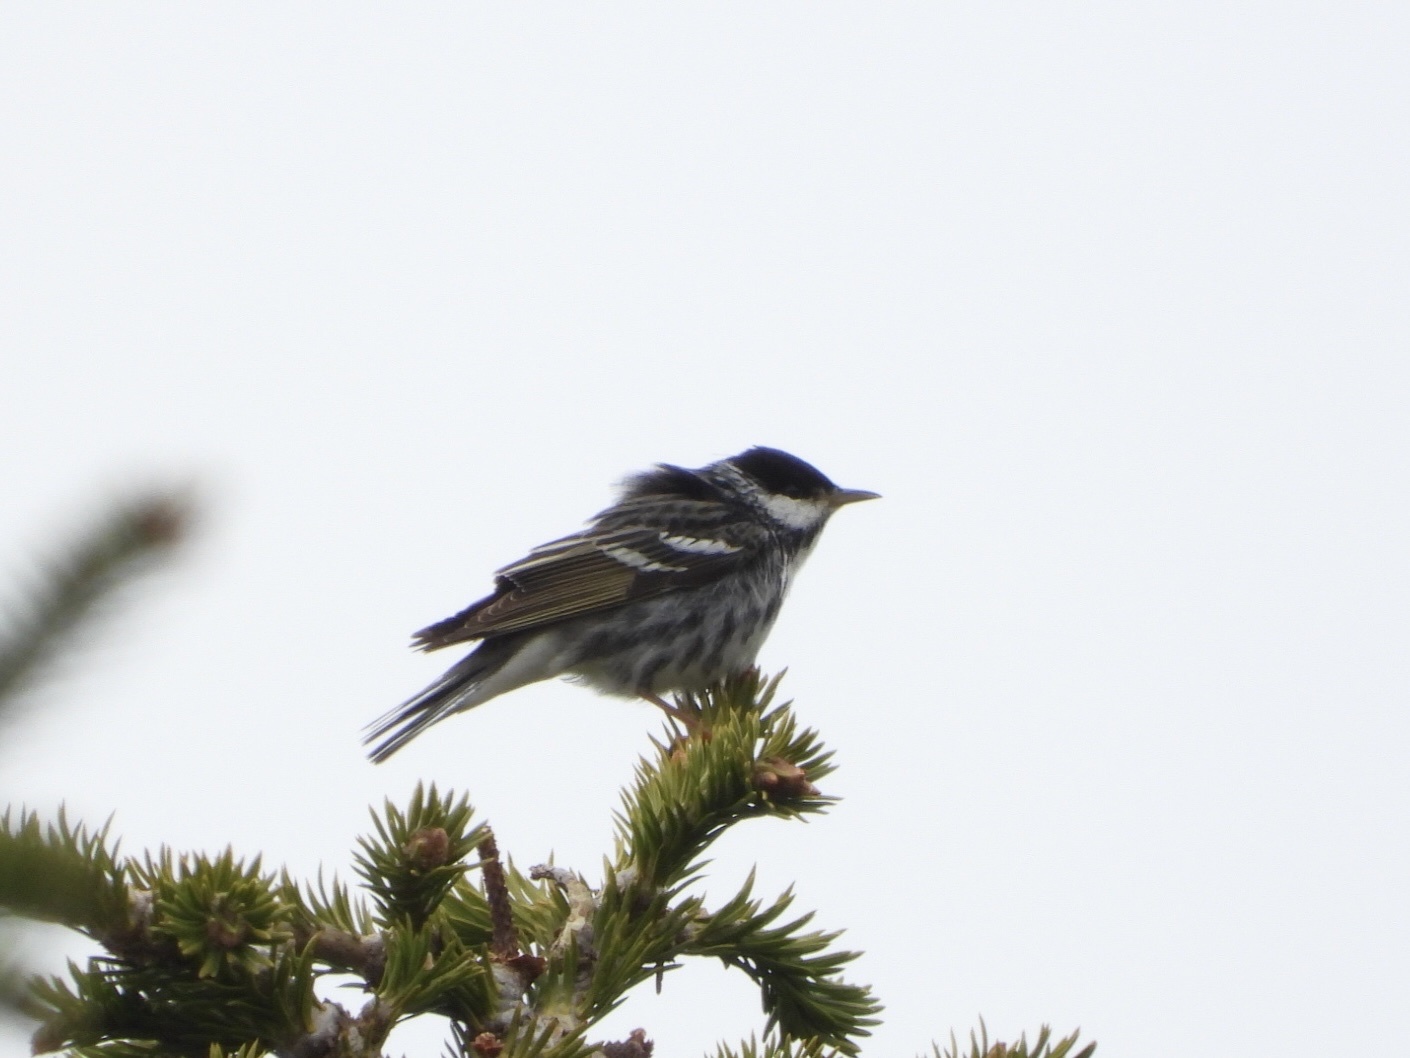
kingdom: Animalia
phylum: Chordata
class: Aves
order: Passeriformes
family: Parulidae
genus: Setophaga
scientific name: Setophaga striata
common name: Blackpoll warbler
